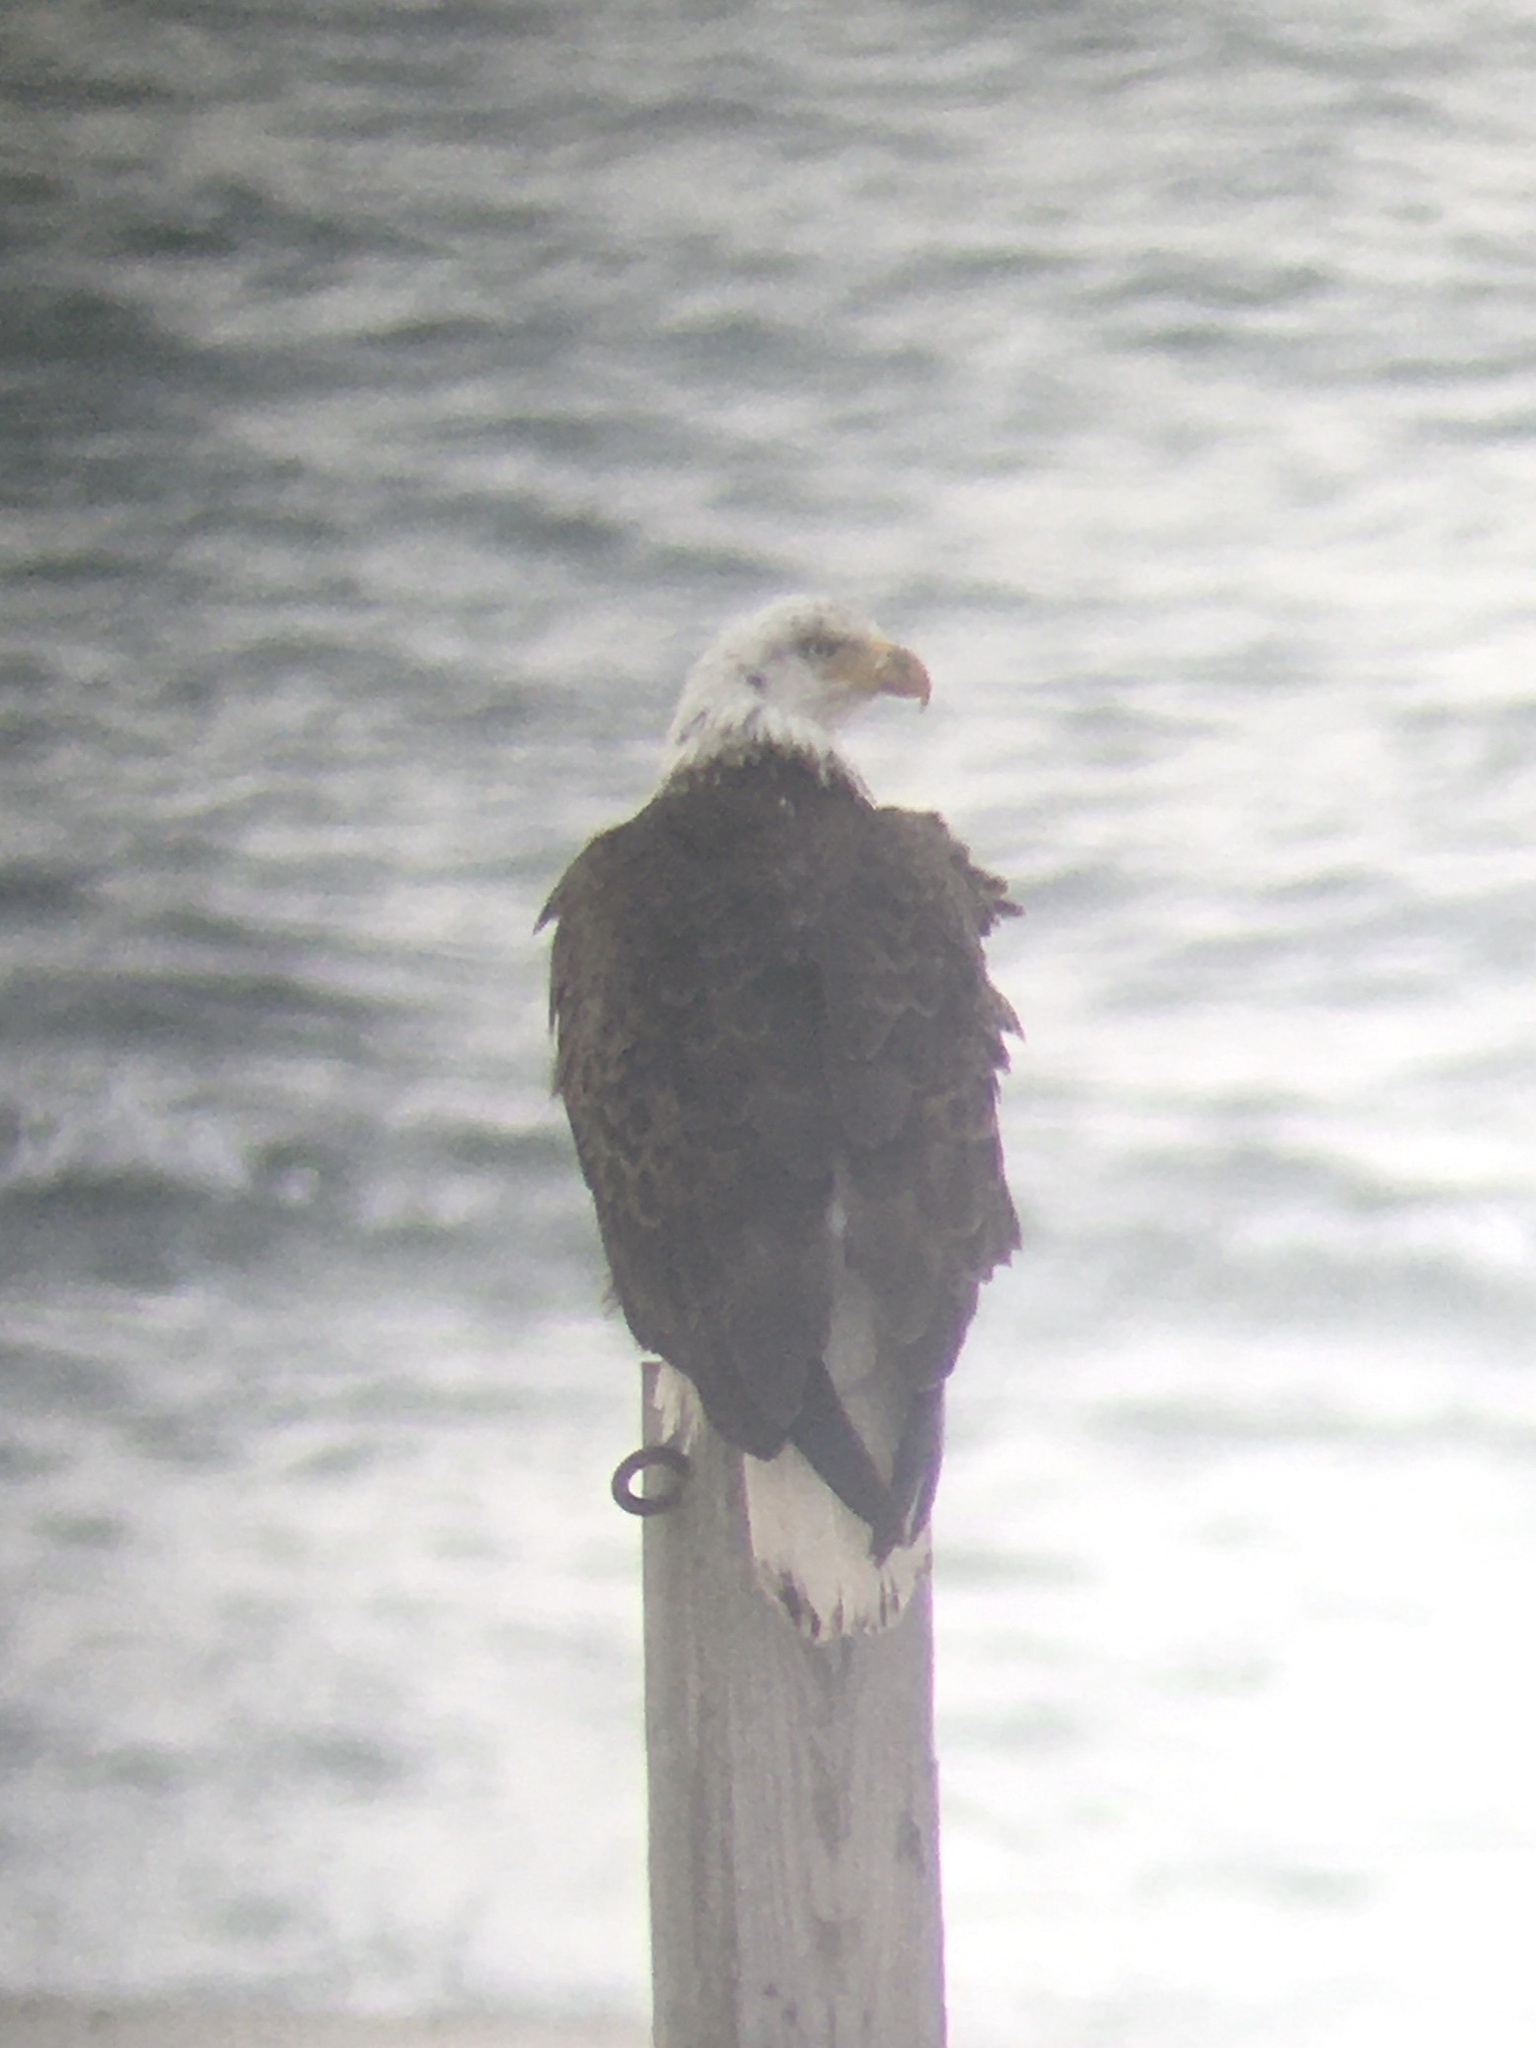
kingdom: Animalia
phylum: Chordata
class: Aves
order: Accipitriformes
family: Accipitridae
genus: Haliaeetus
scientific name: Haliaeetus leucocephalus
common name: Bald eagle
